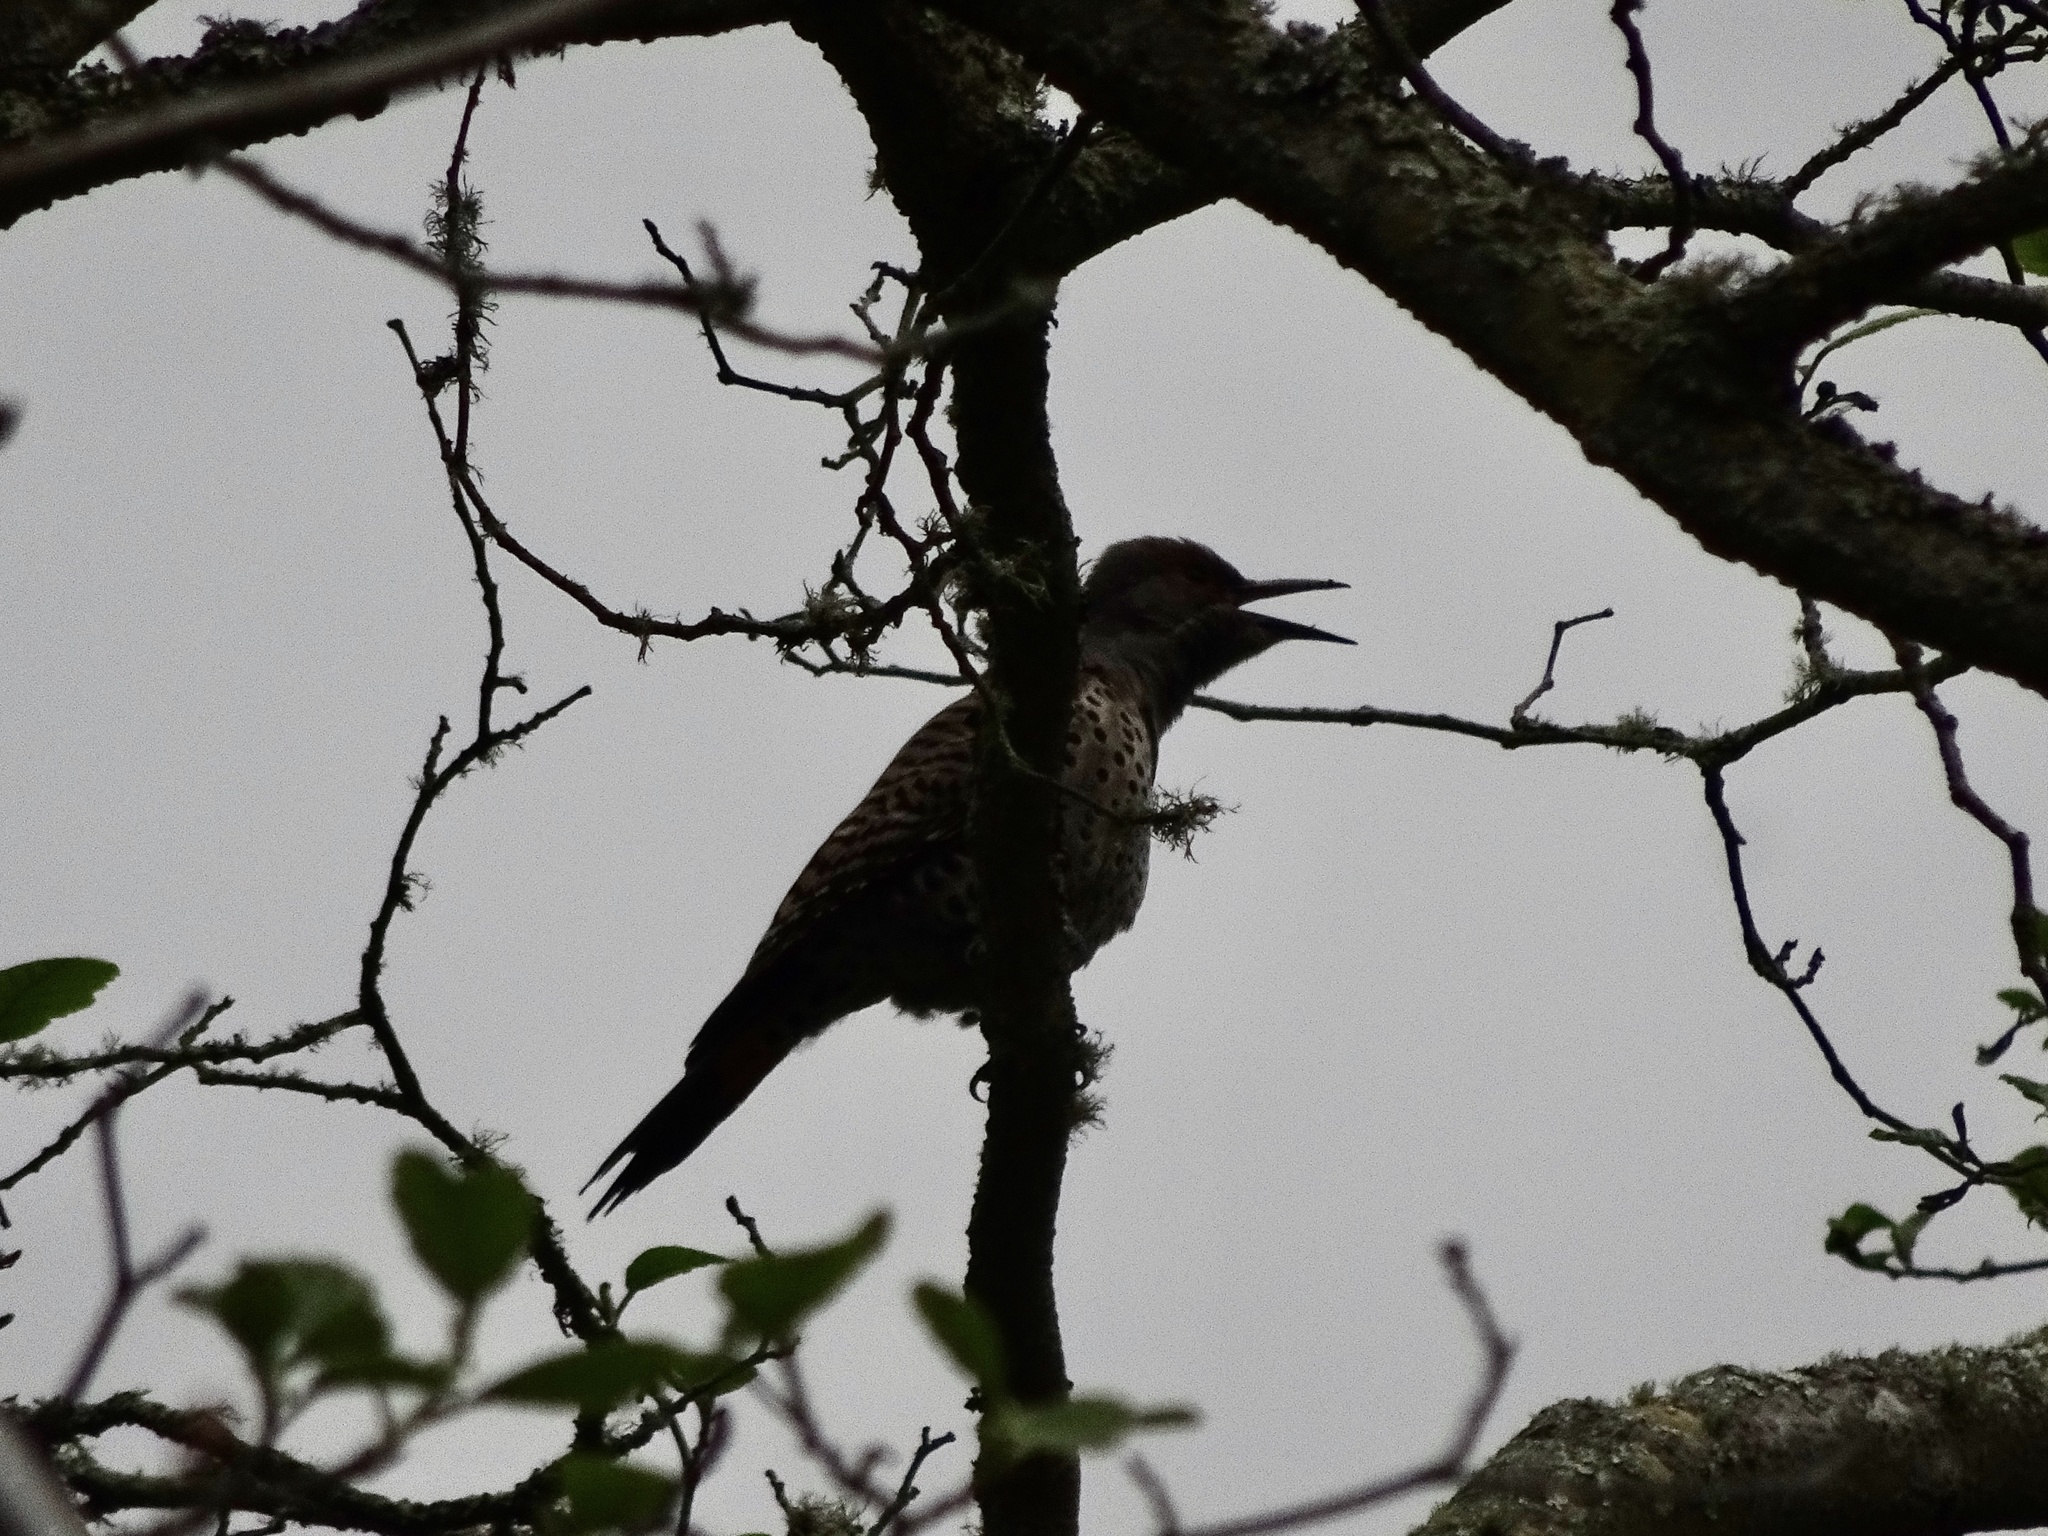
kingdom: Animalia
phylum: Chordata
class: Aves
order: Piciformes
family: Picidae
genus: Colaptes
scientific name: Colaptes auratus
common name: Northern flicker
